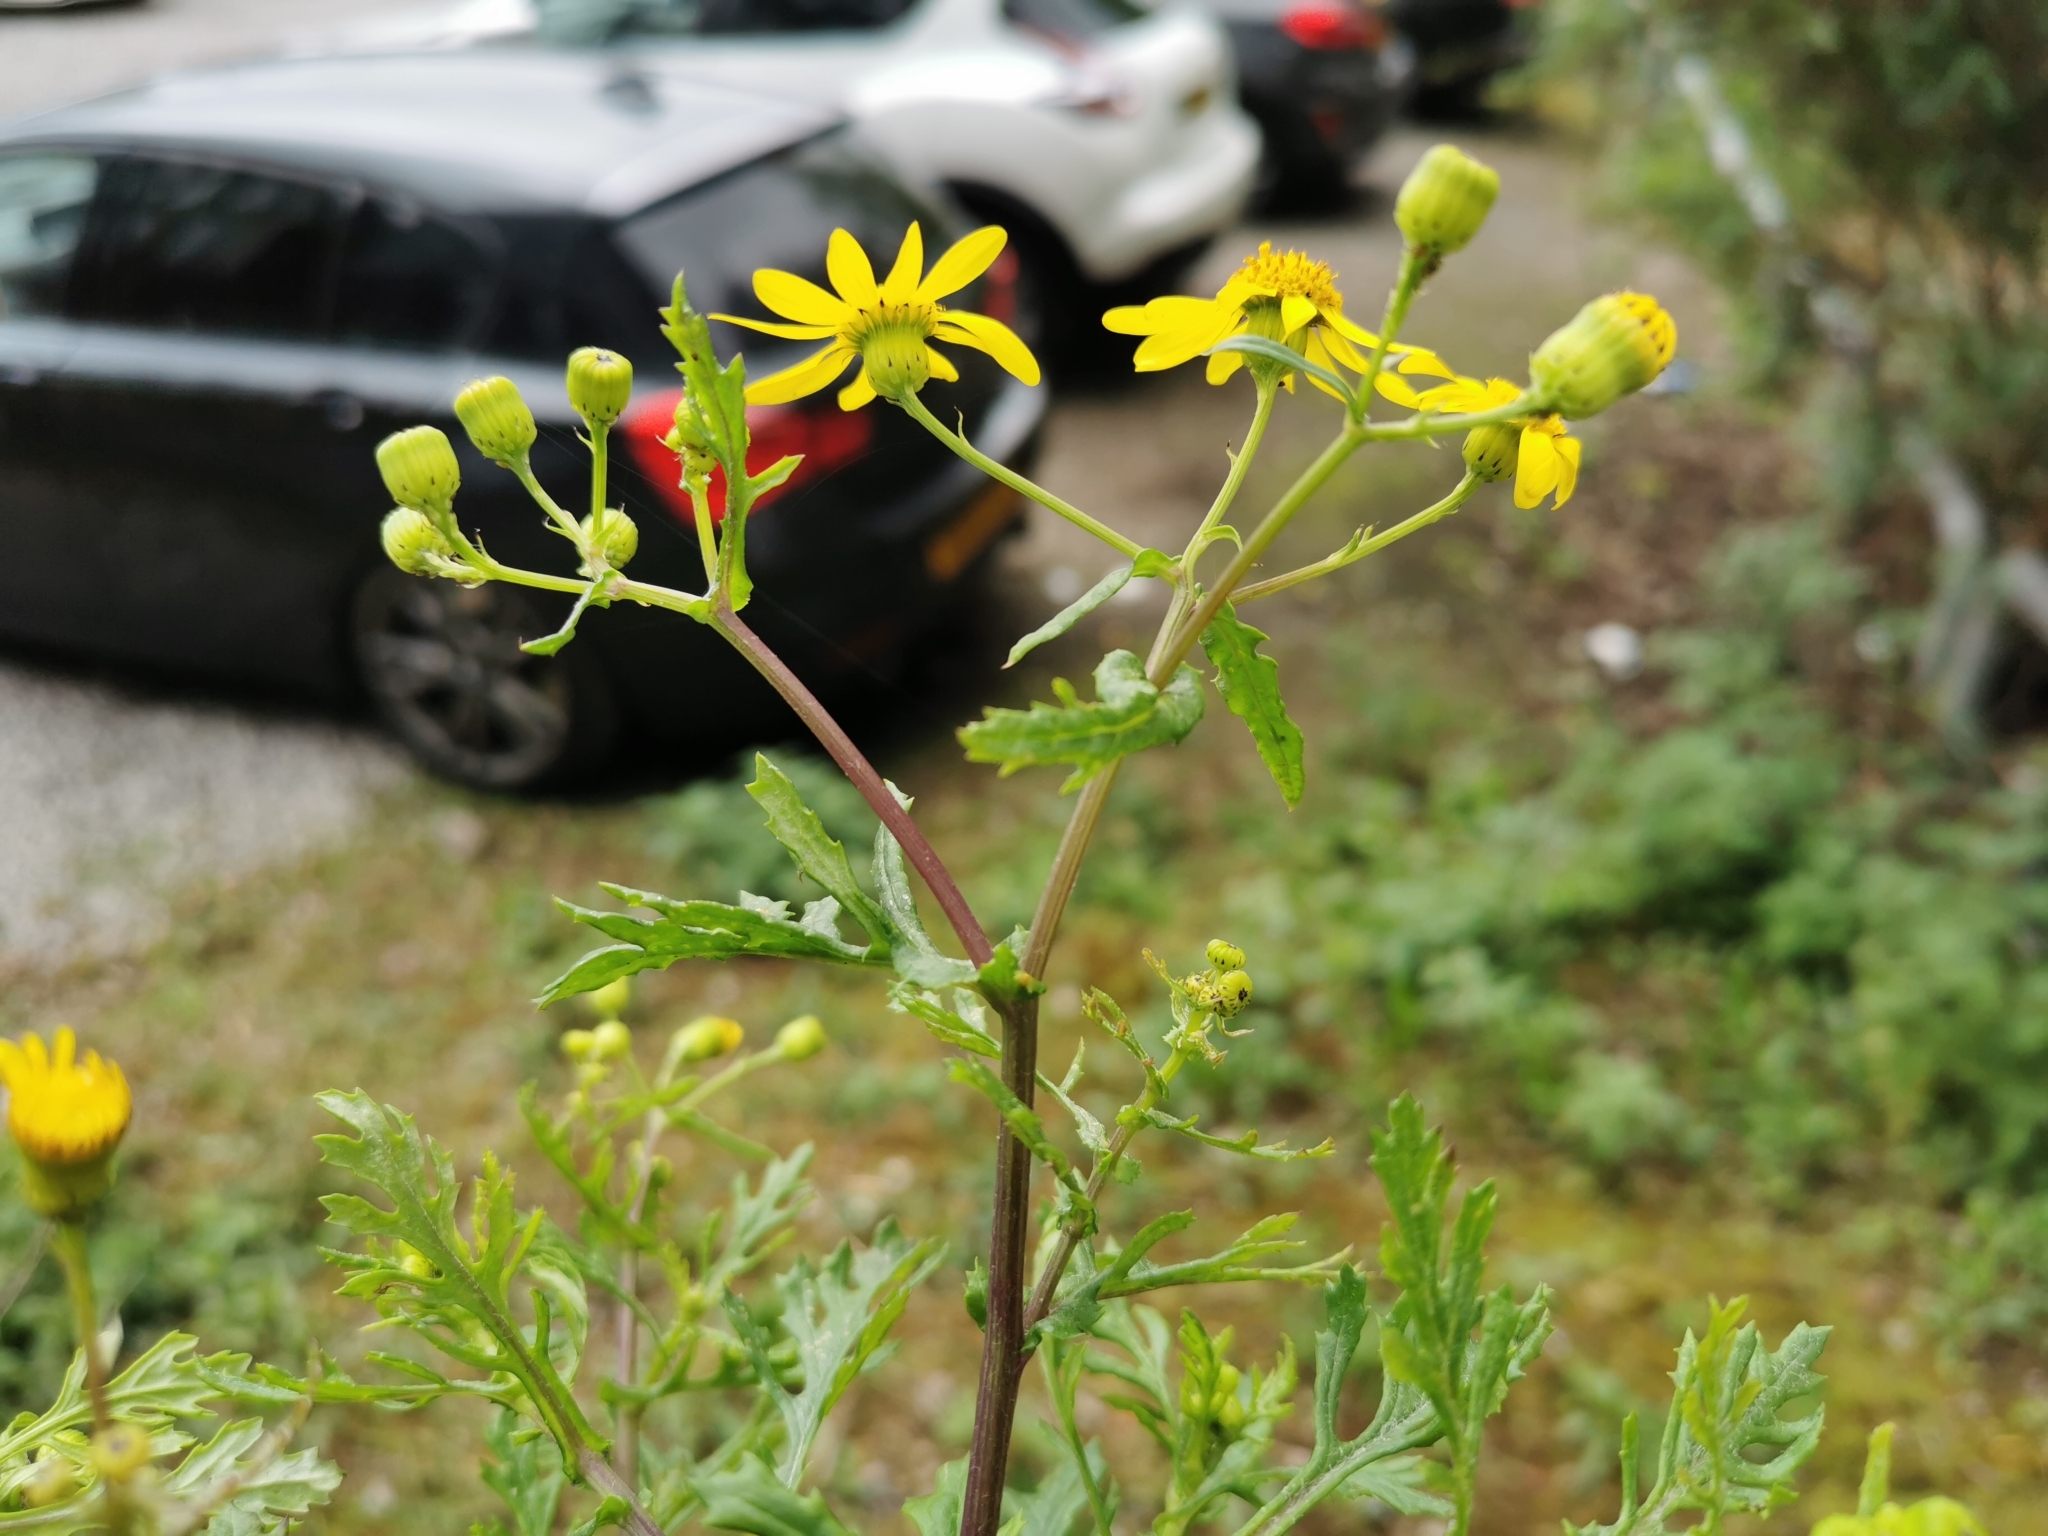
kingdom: Plantae
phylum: Tracheophyta
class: Magnoliopsida
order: Asterales
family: Asteraceae
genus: Senecio
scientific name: Senecio squalidus
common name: Oxford ragwort
